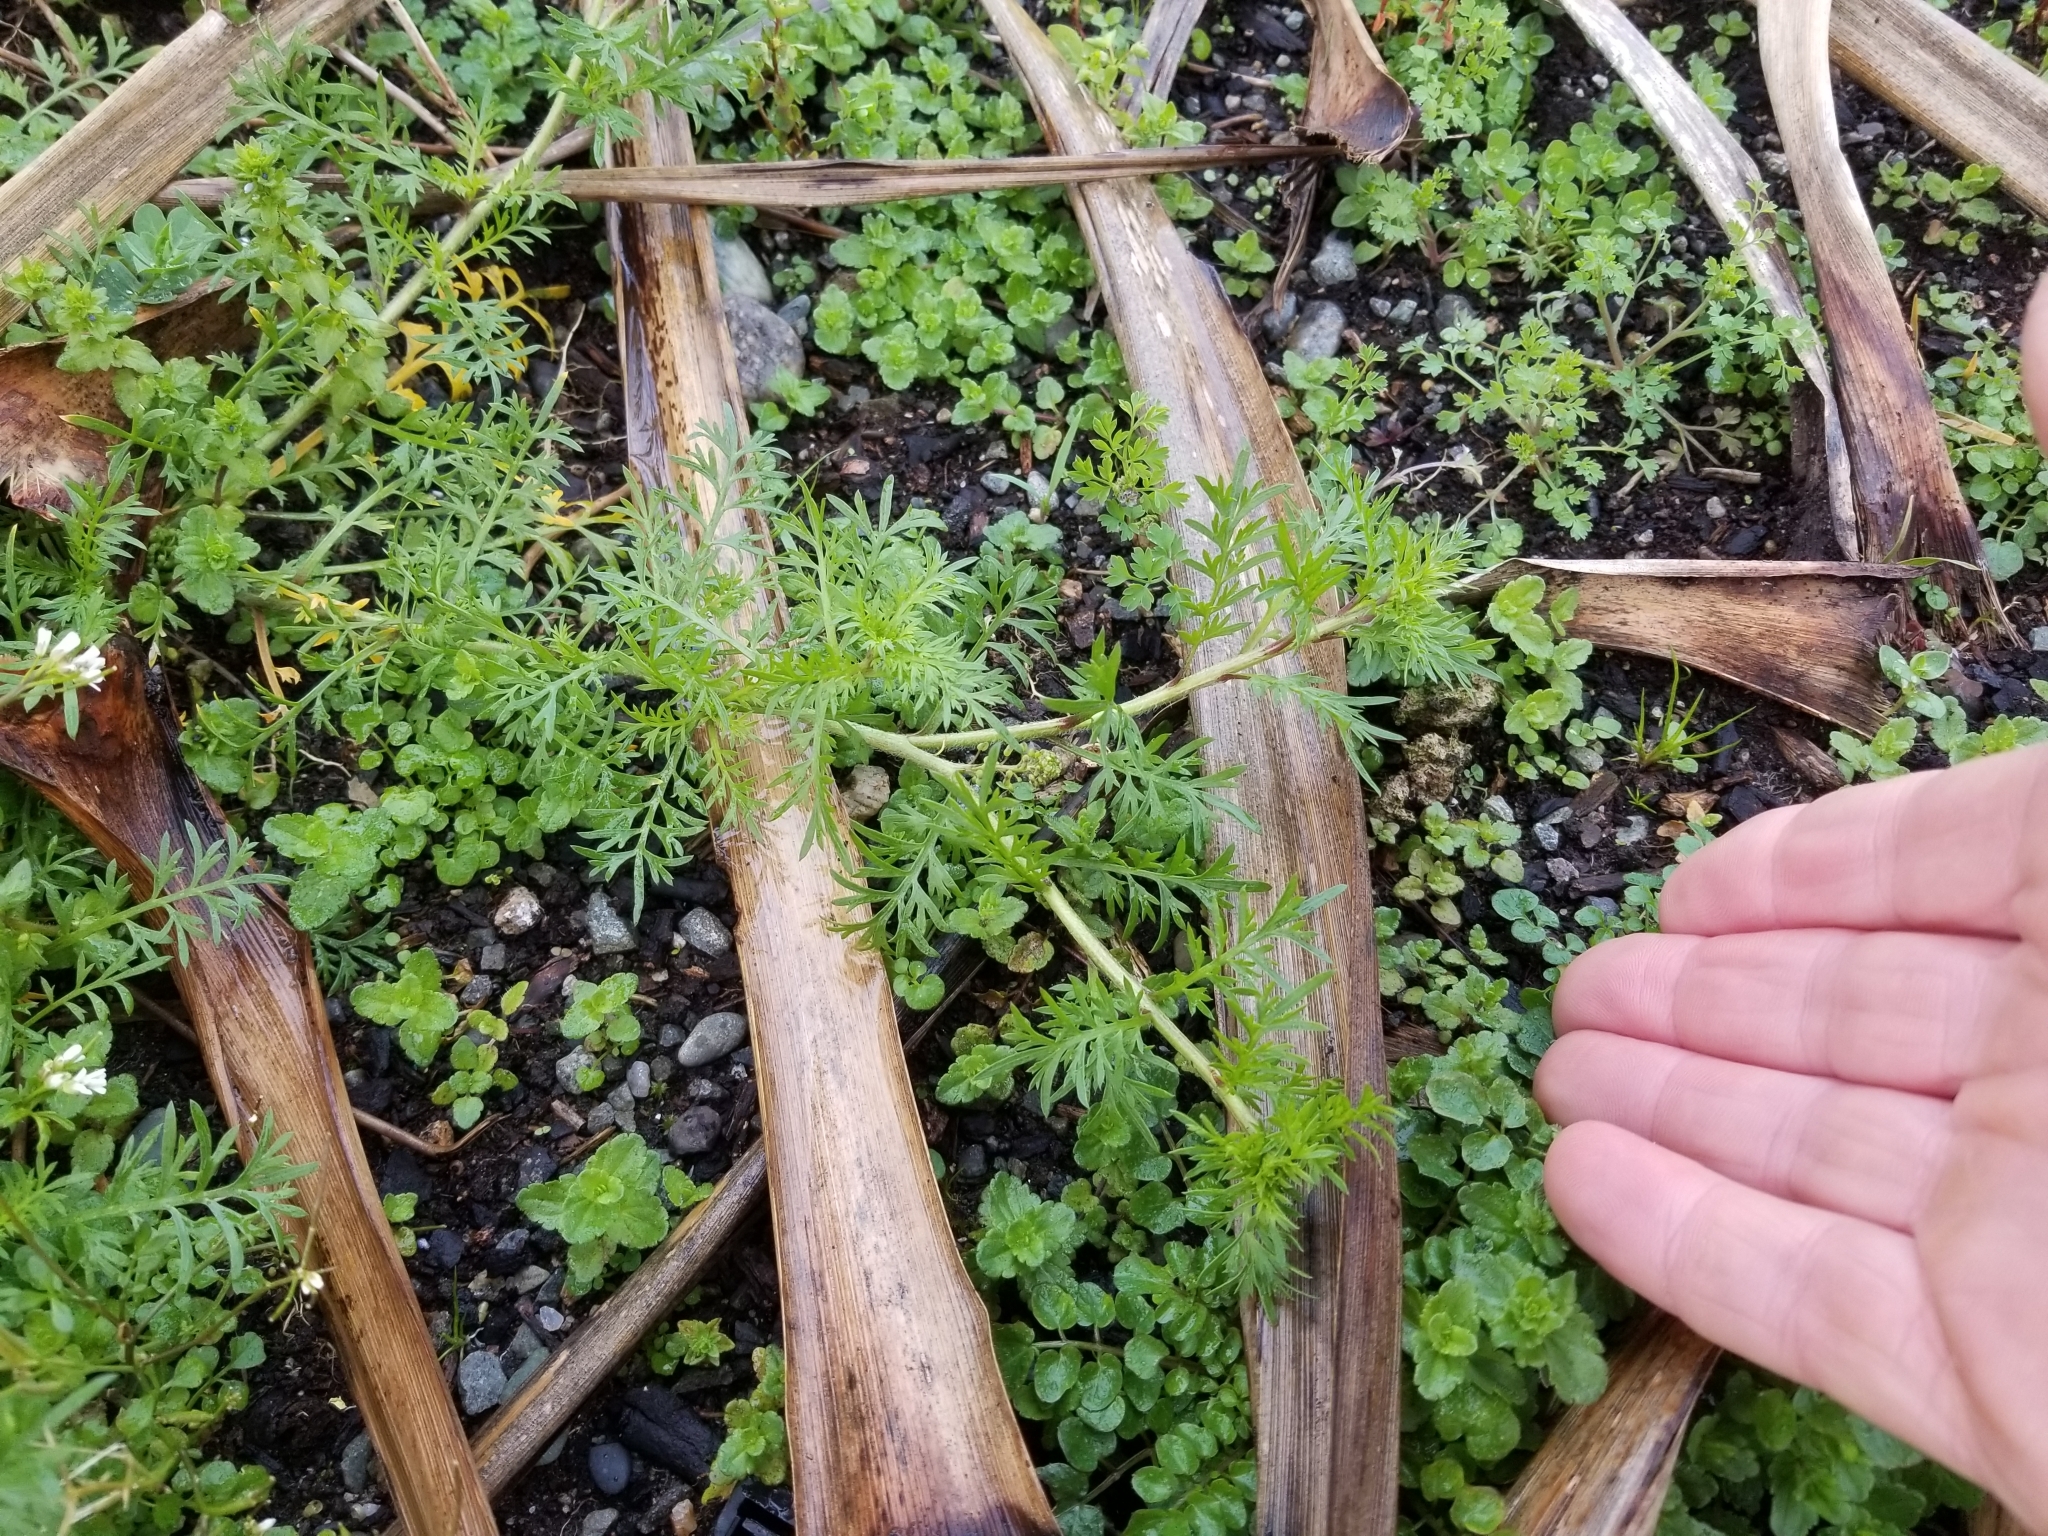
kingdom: Plantae
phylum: Tracheophyta
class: Magnoliopsida
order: Brassicales
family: Brassicaceae
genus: Lepidium
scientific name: Lepidium didymum
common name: Lesser swinecress
